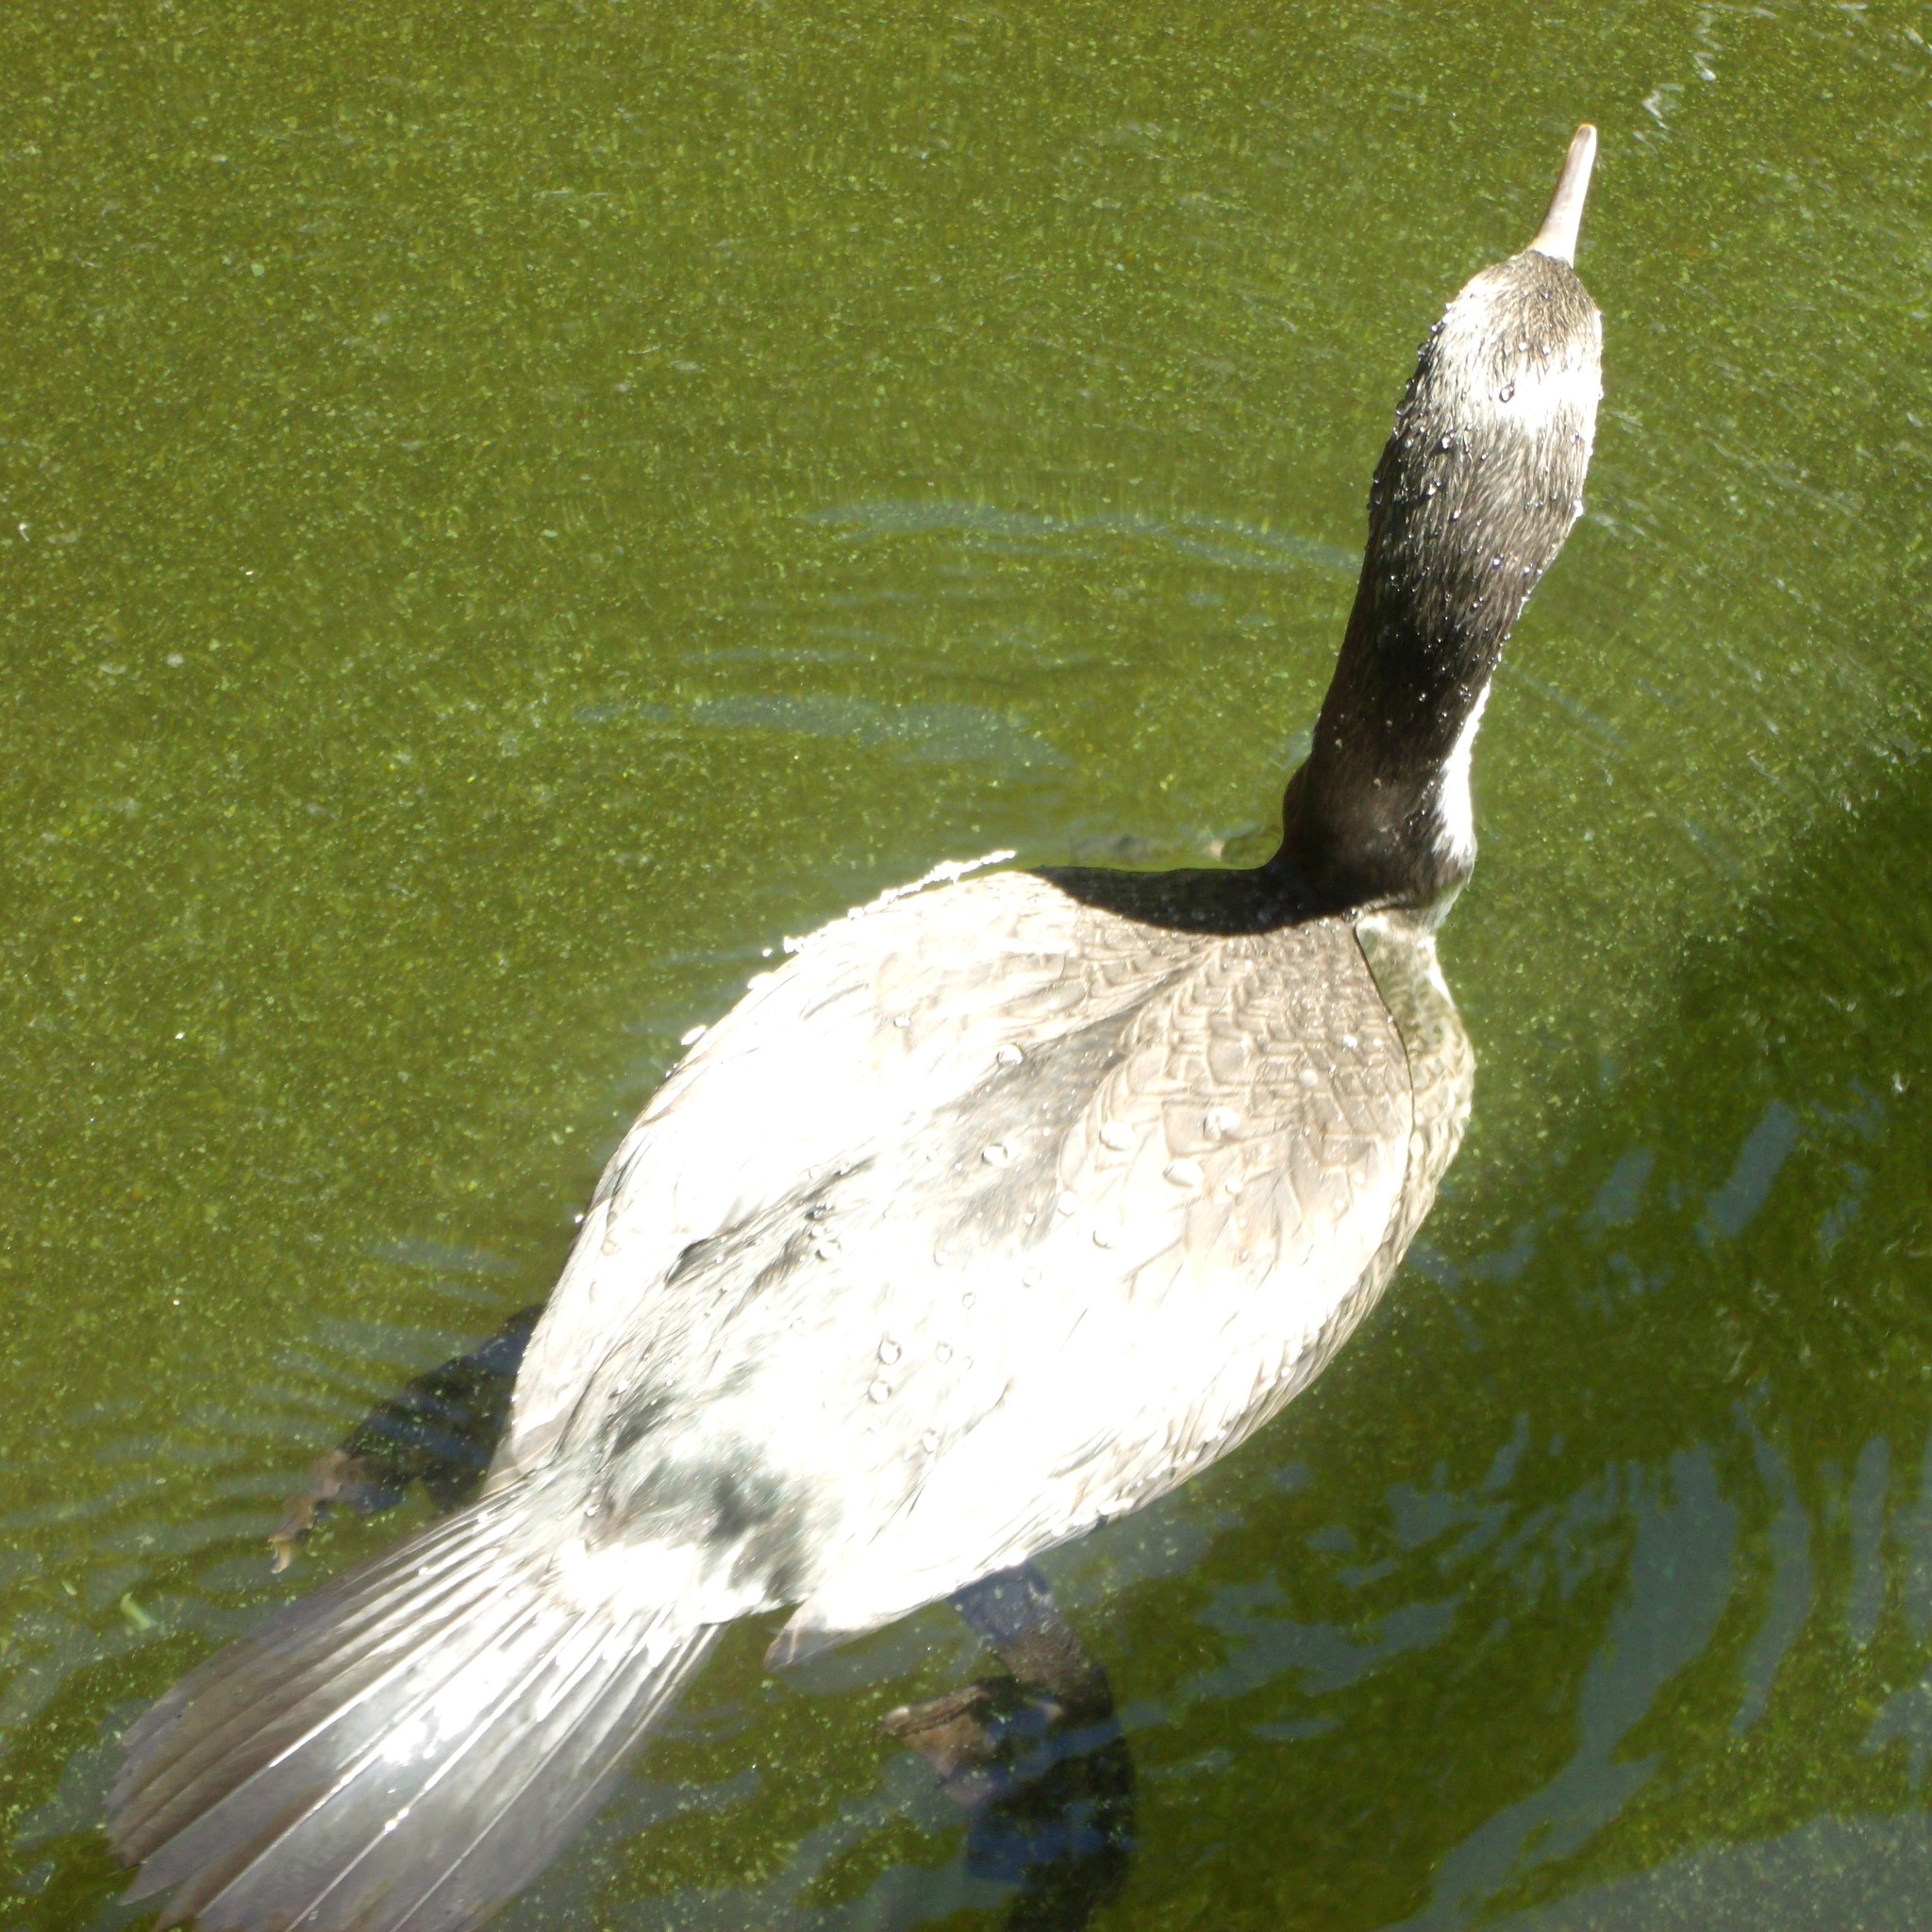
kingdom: Animalia
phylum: Chordata
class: Aves
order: Suliformes
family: Phalacrocoracidae
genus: Phalacrocorax
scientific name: Phalacrocorax varius
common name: Pied cormorant
